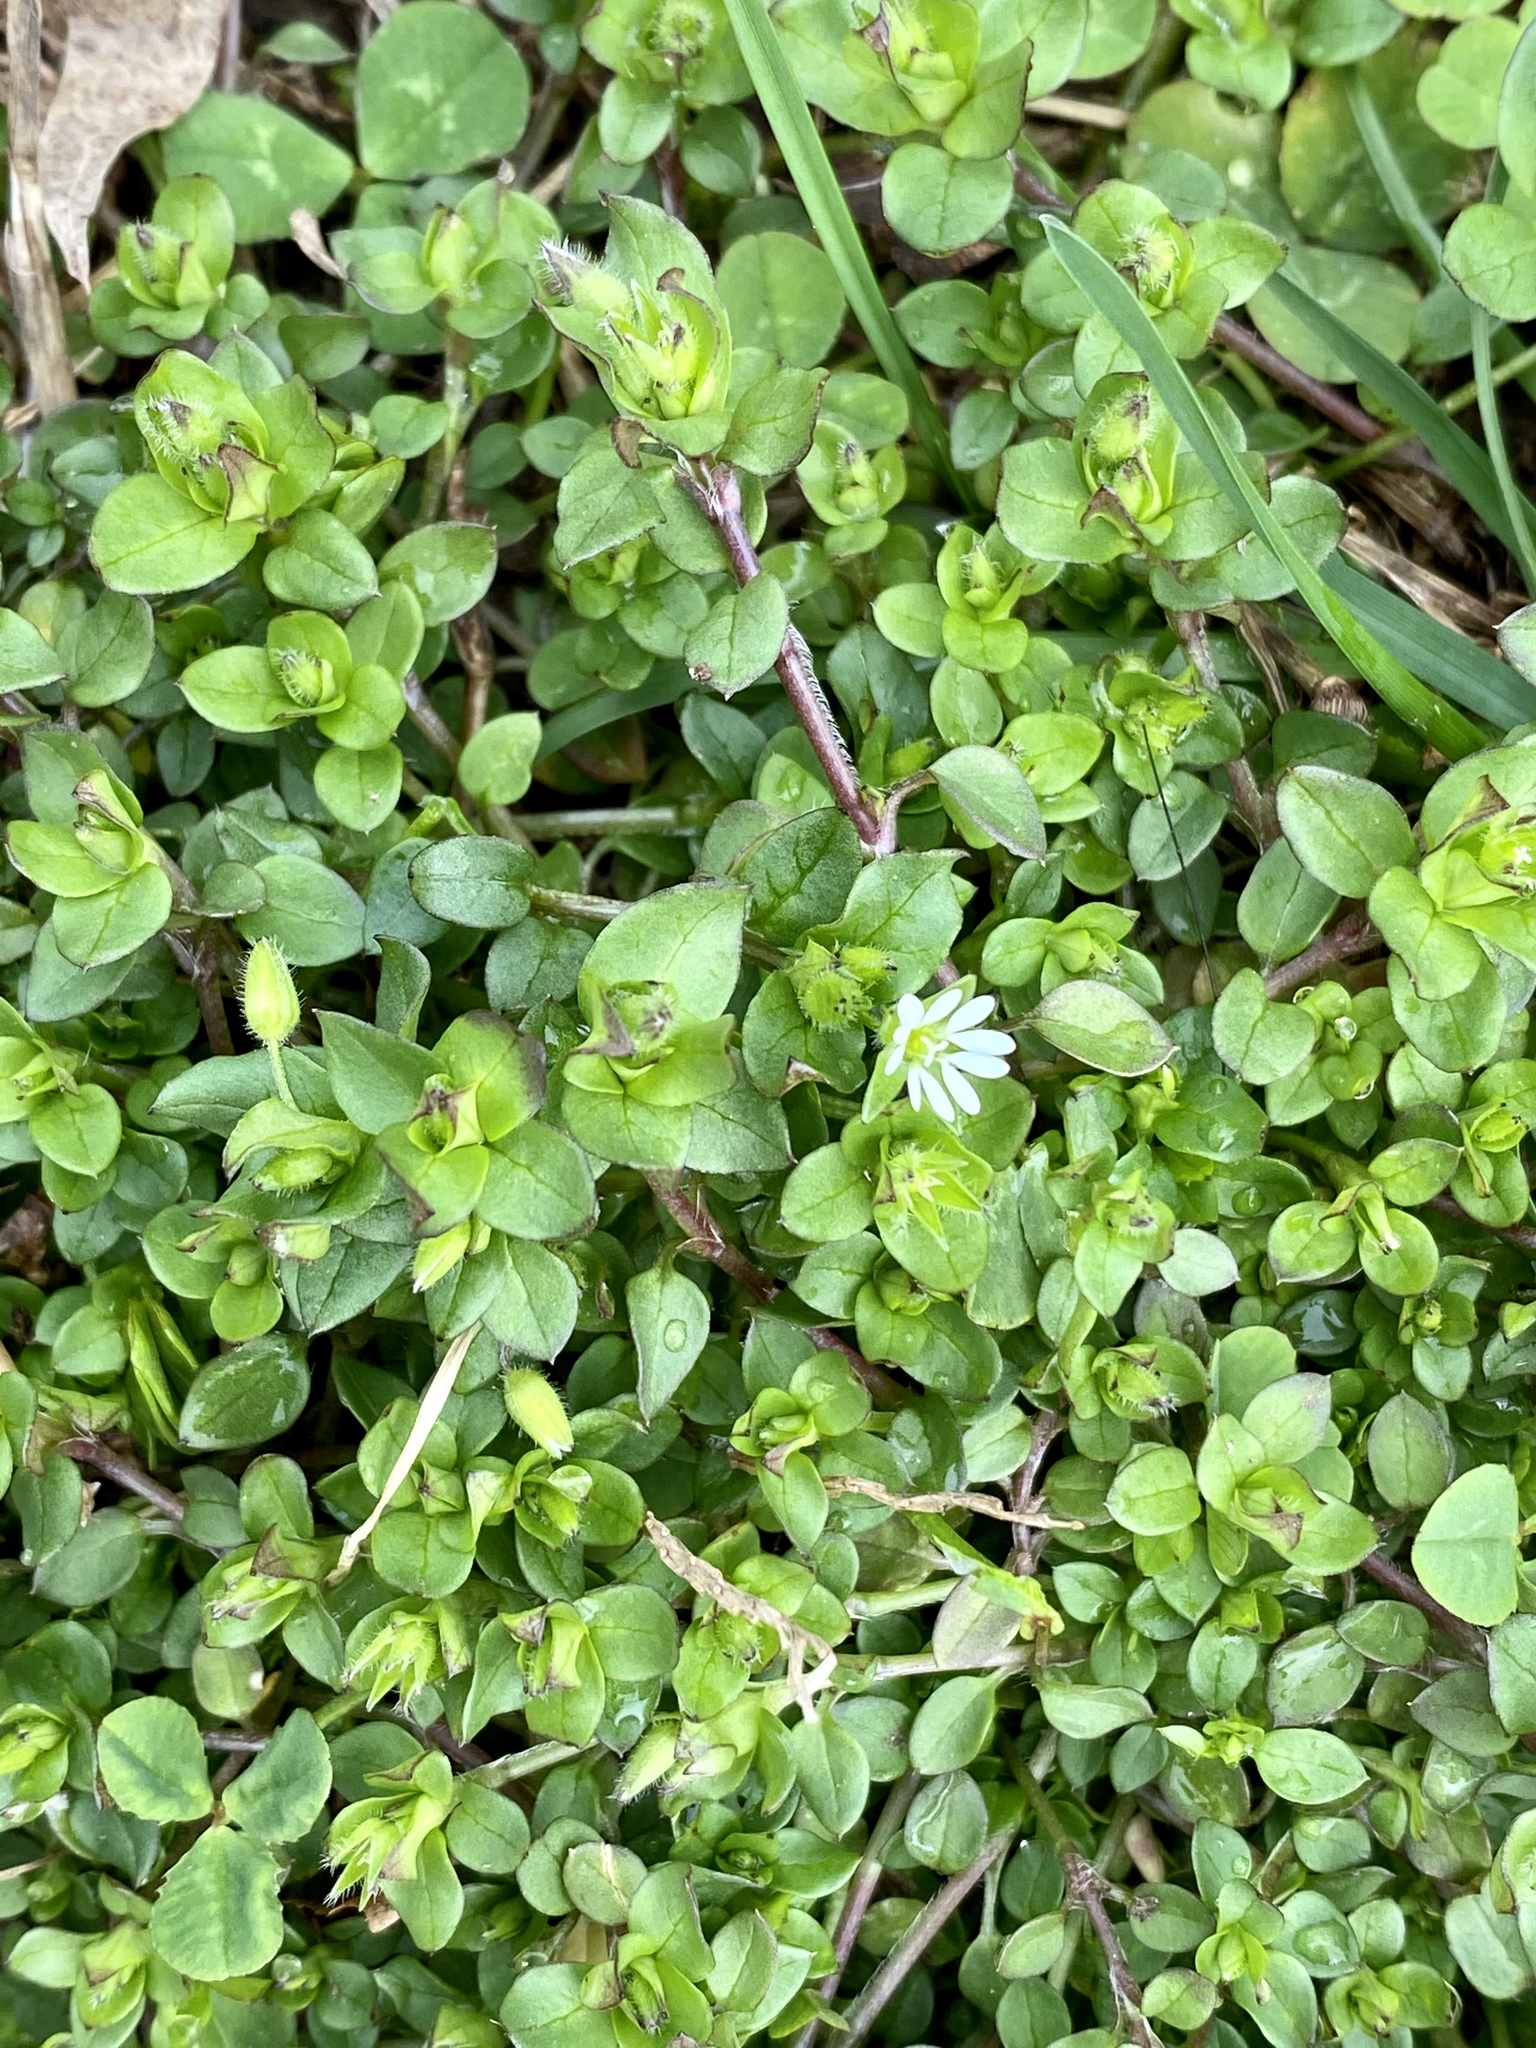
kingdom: Plantae
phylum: Tracheophyta
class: Magnoliopsida
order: Caryophyllales
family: Caryophyllaceae
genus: Stellaria
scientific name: Stellaria media
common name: Common chickweed
